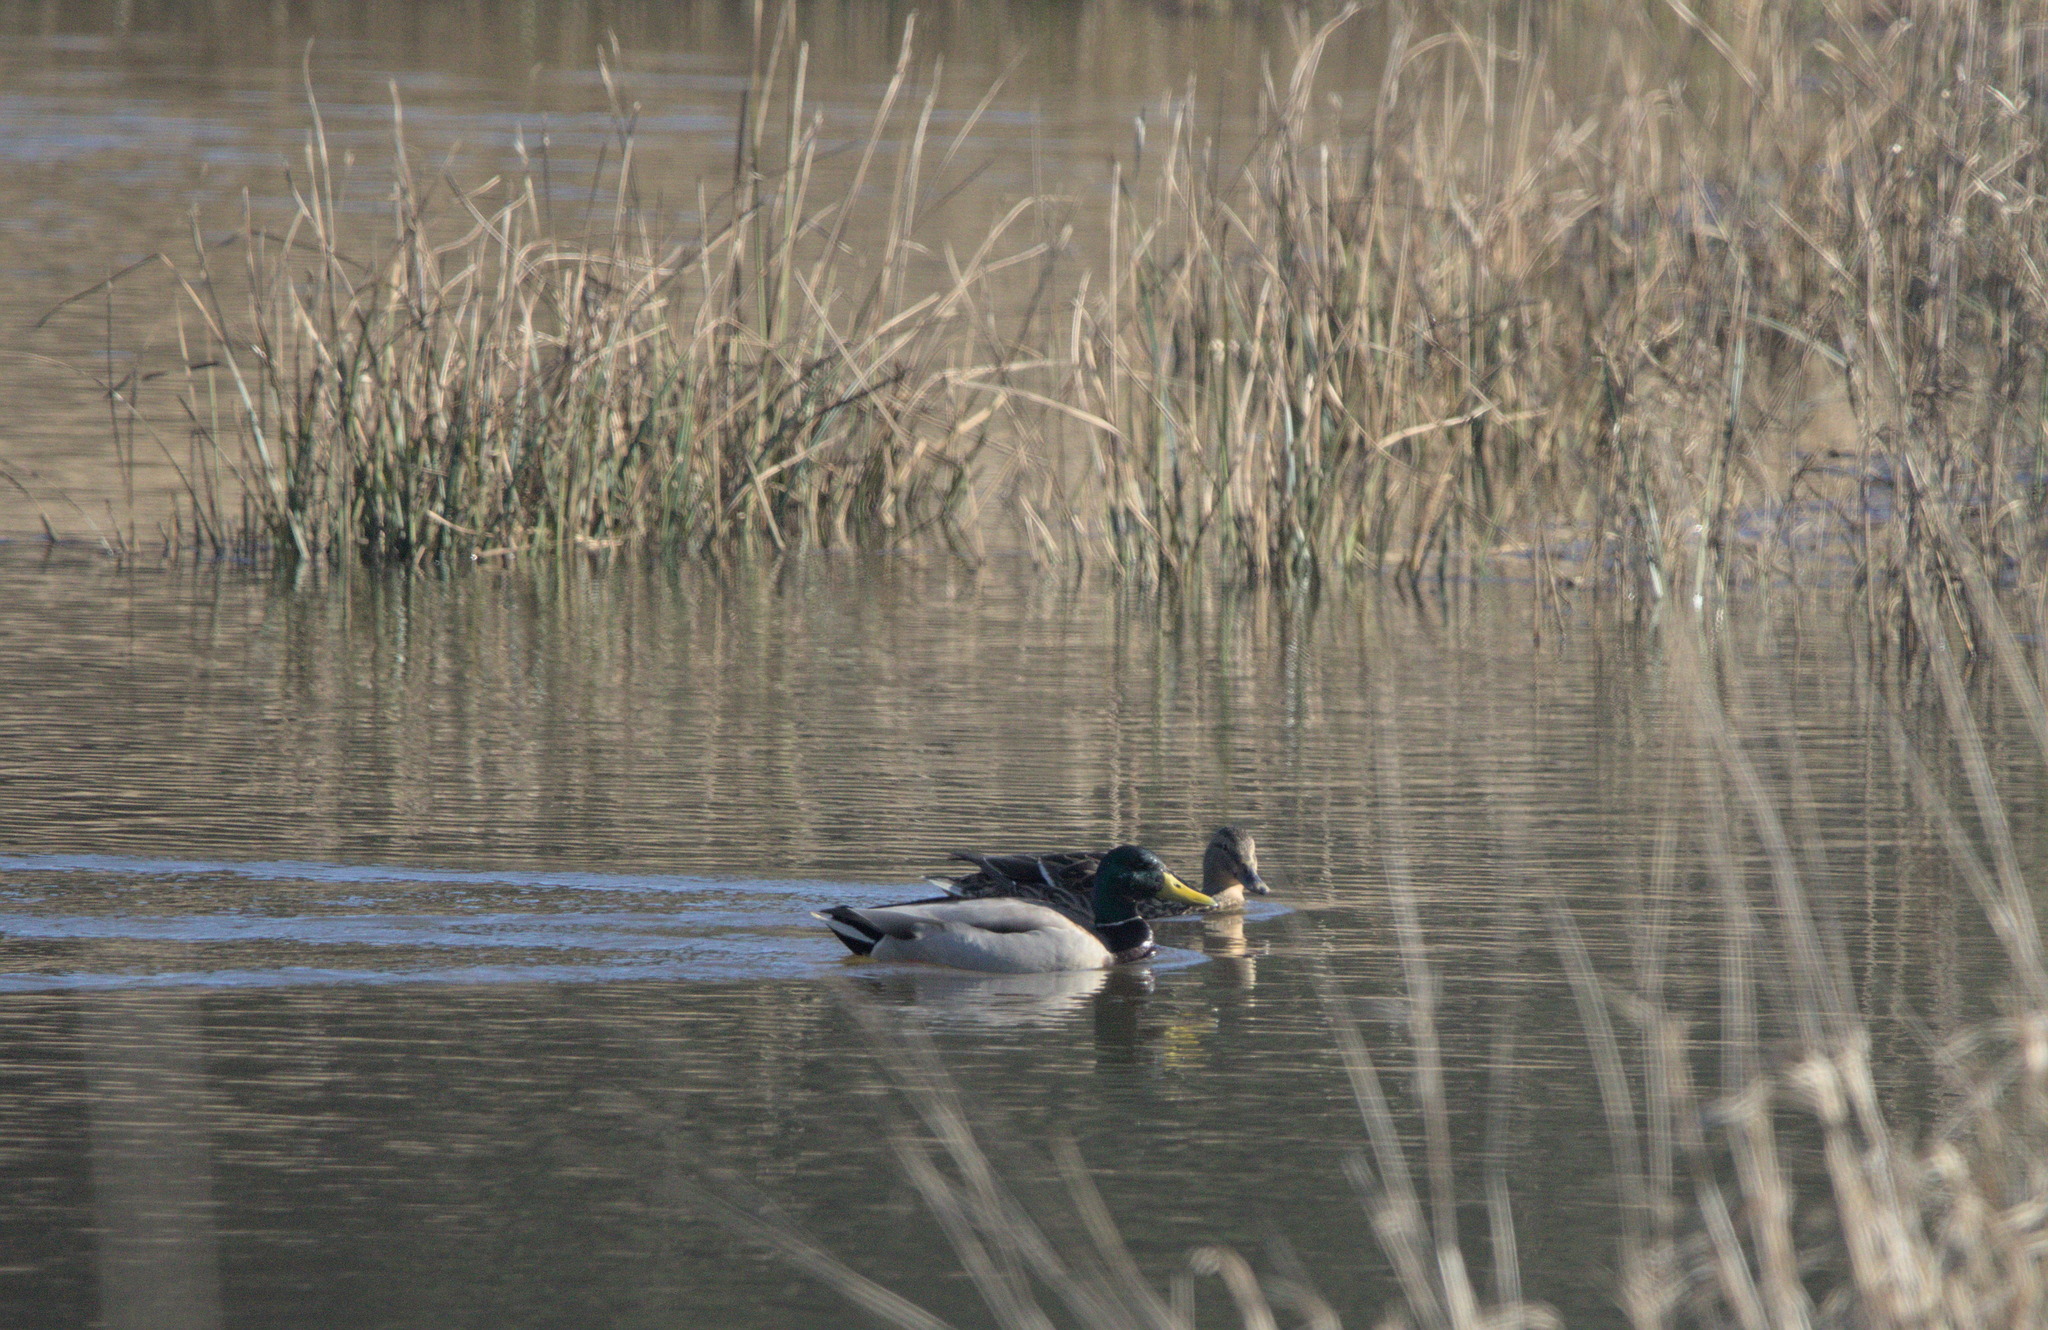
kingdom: Animalia
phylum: Chordata
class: Aves
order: Anseriformes
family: Anatidae
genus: Anas
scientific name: Anas platyrhynchos
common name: Mallard
